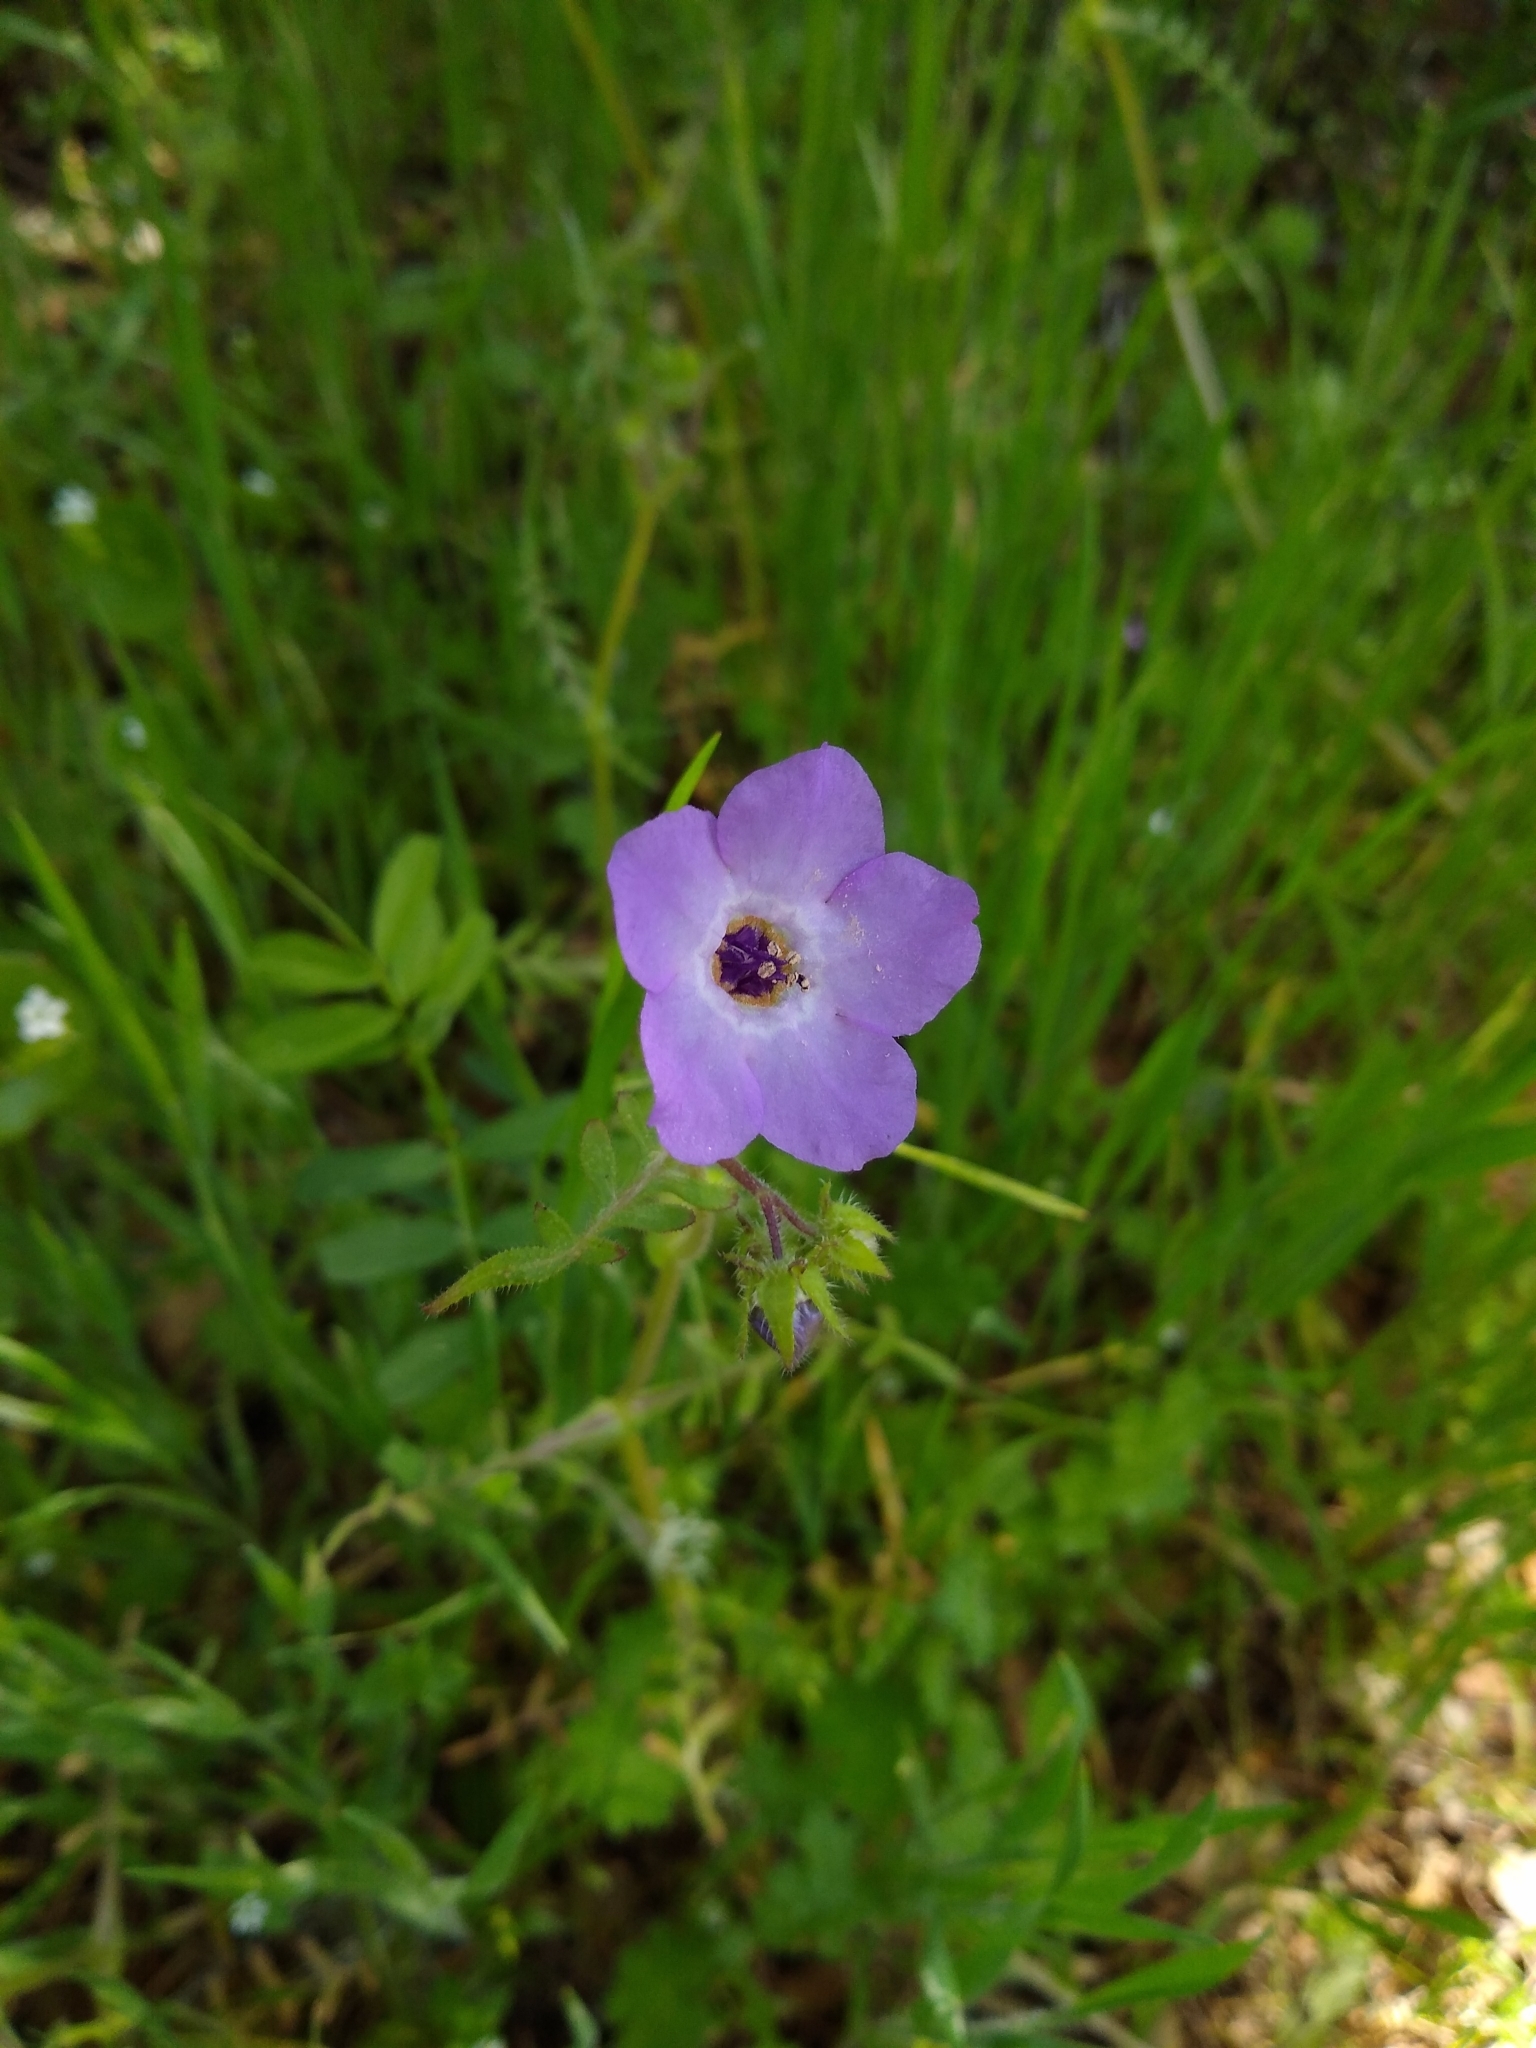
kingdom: Plantae
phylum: Tracheophyta
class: Magnoliopsida
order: Boraginales
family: Hydrophyllaceae
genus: Pholistoma
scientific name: Pholistoma auritum
